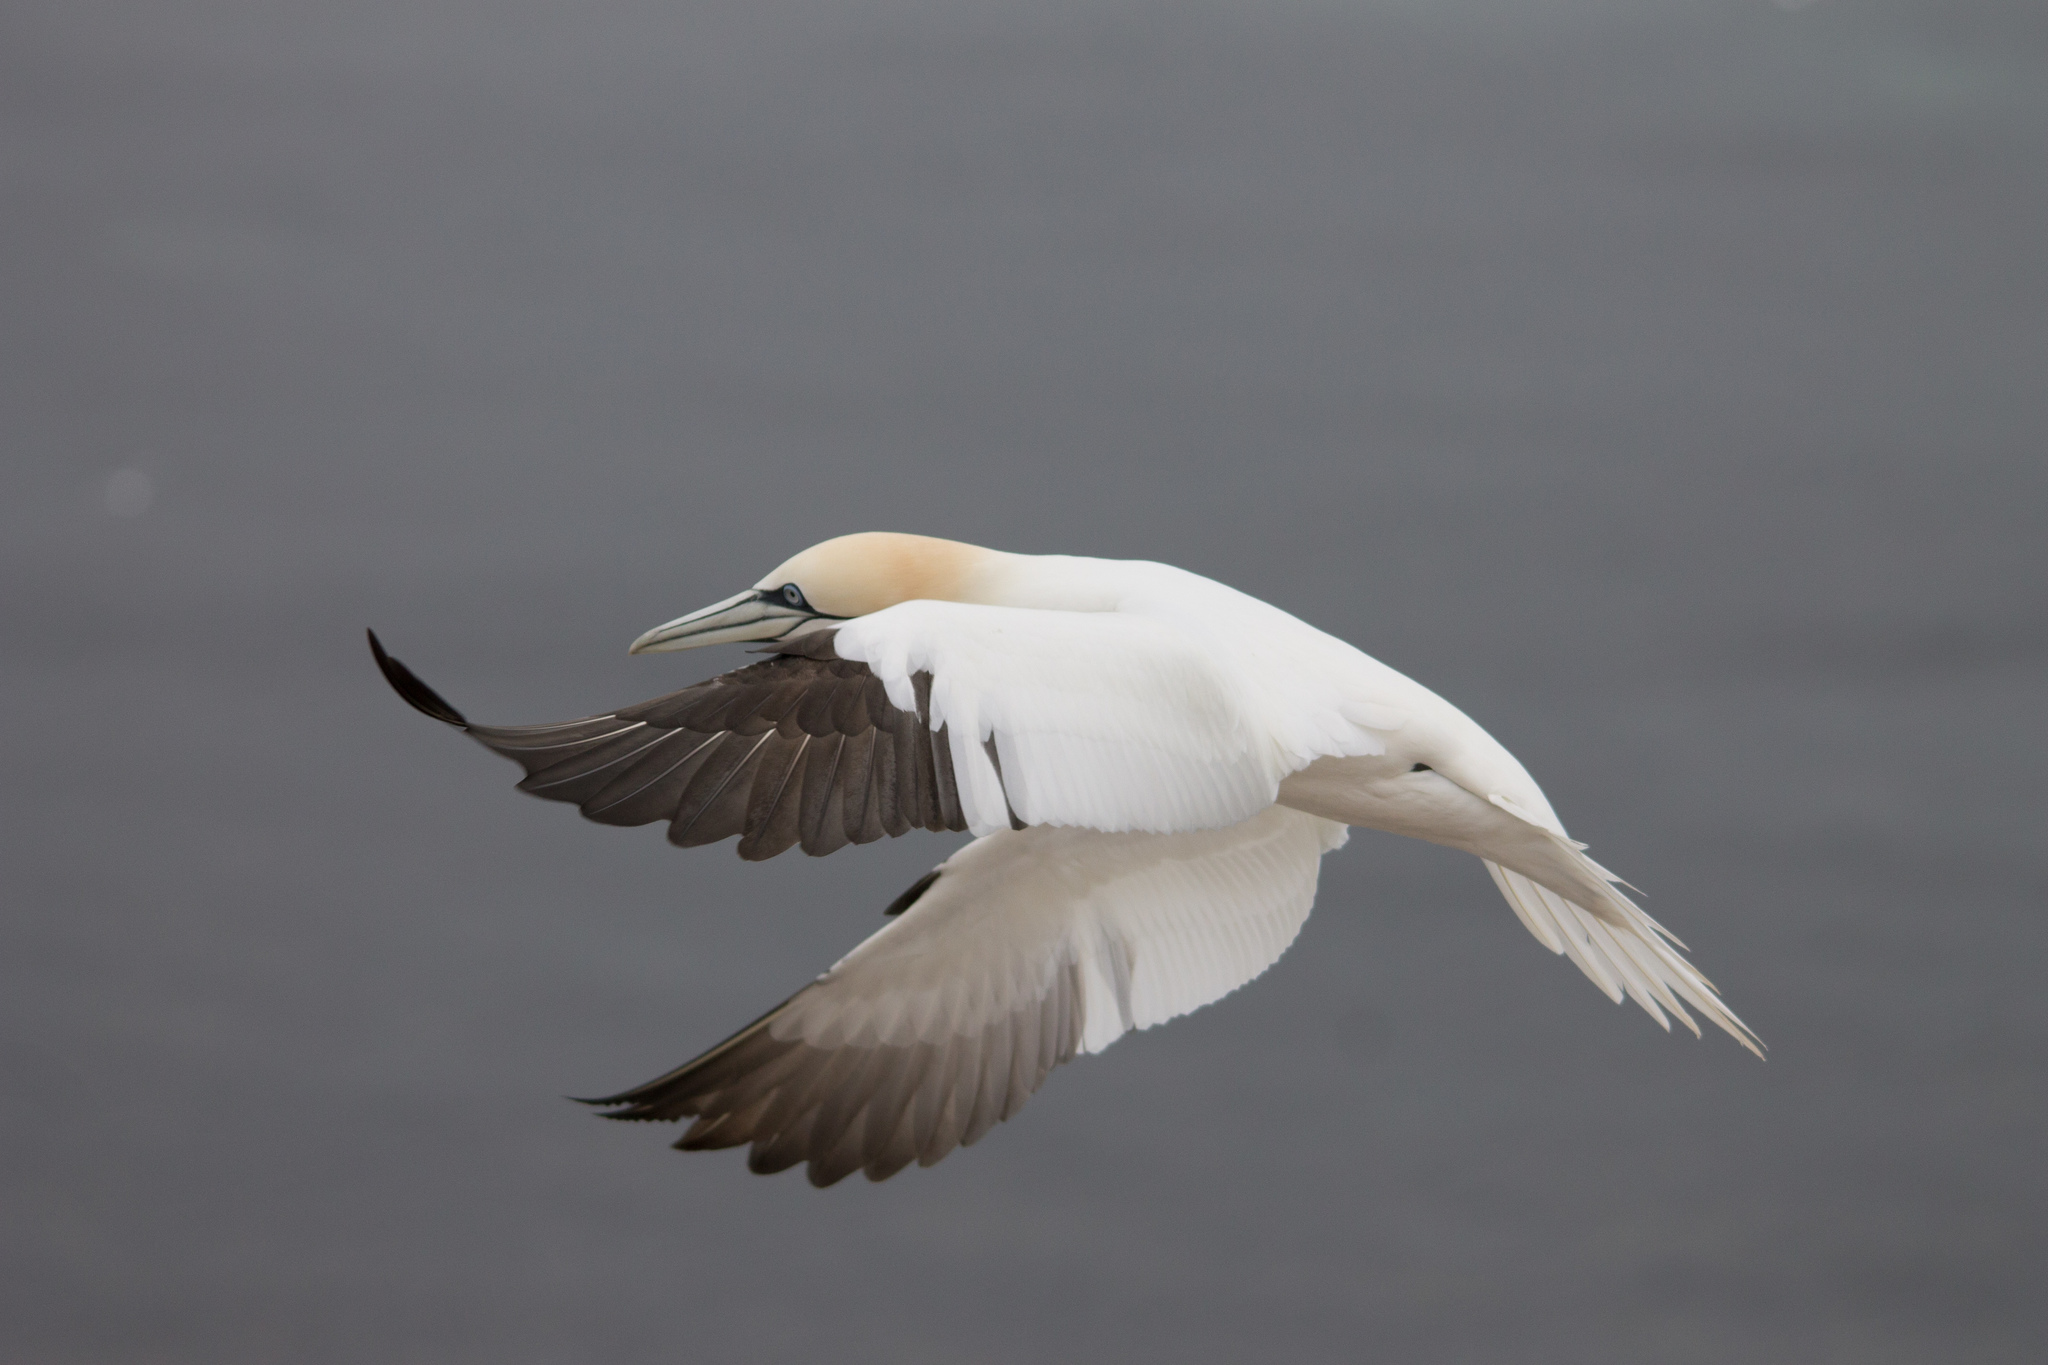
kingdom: Animalia
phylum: Chordata
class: Aves
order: Suliformes
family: Sulidae
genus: Morus
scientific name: Morus bassanus
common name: Northern gannet
